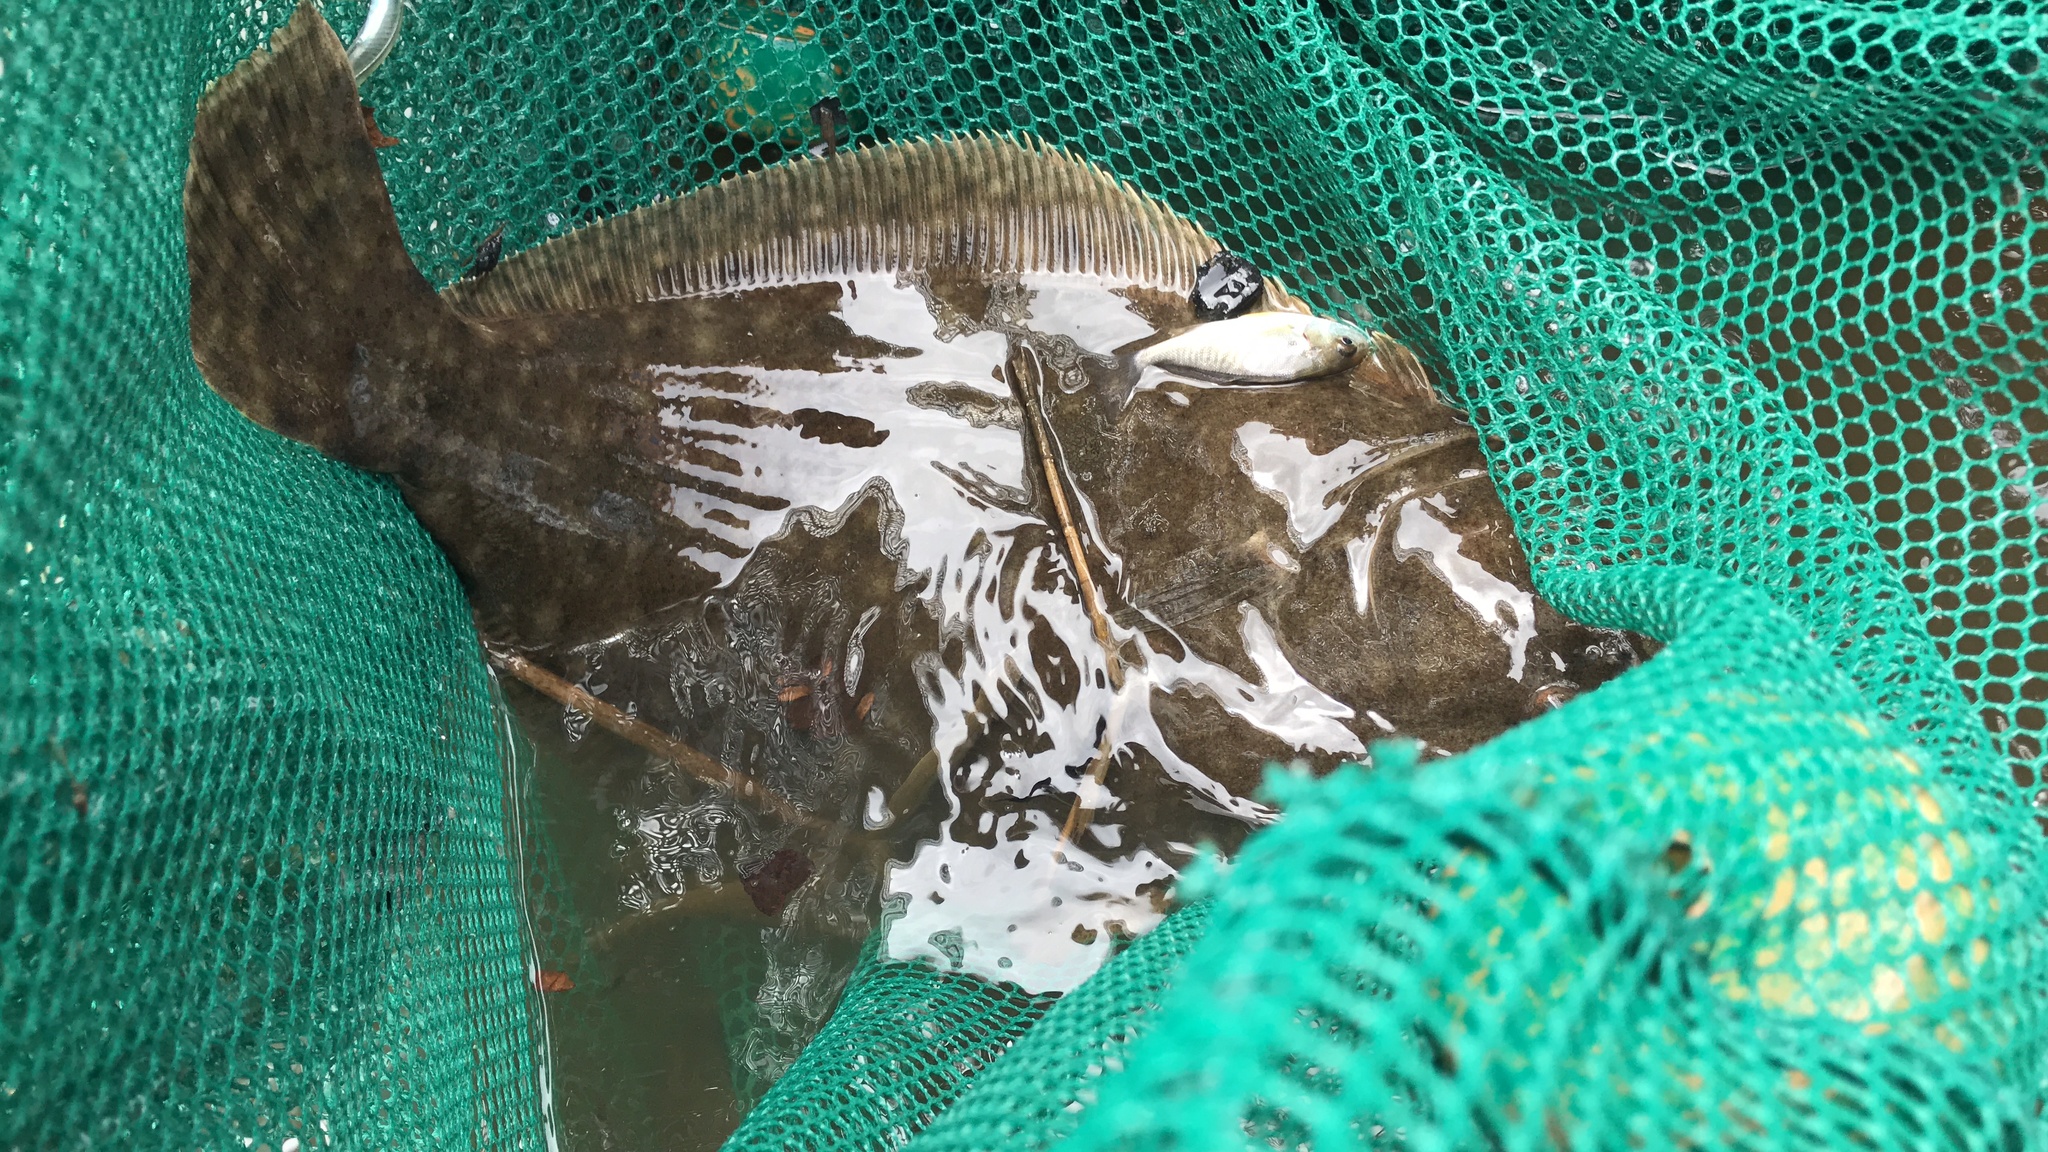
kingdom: Animalia
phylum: Chordata
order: Pleuronectiformes
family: Paralichthyidae
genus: Paralichthys
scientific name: Paralichthys lethostigma
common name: Southern flounder
